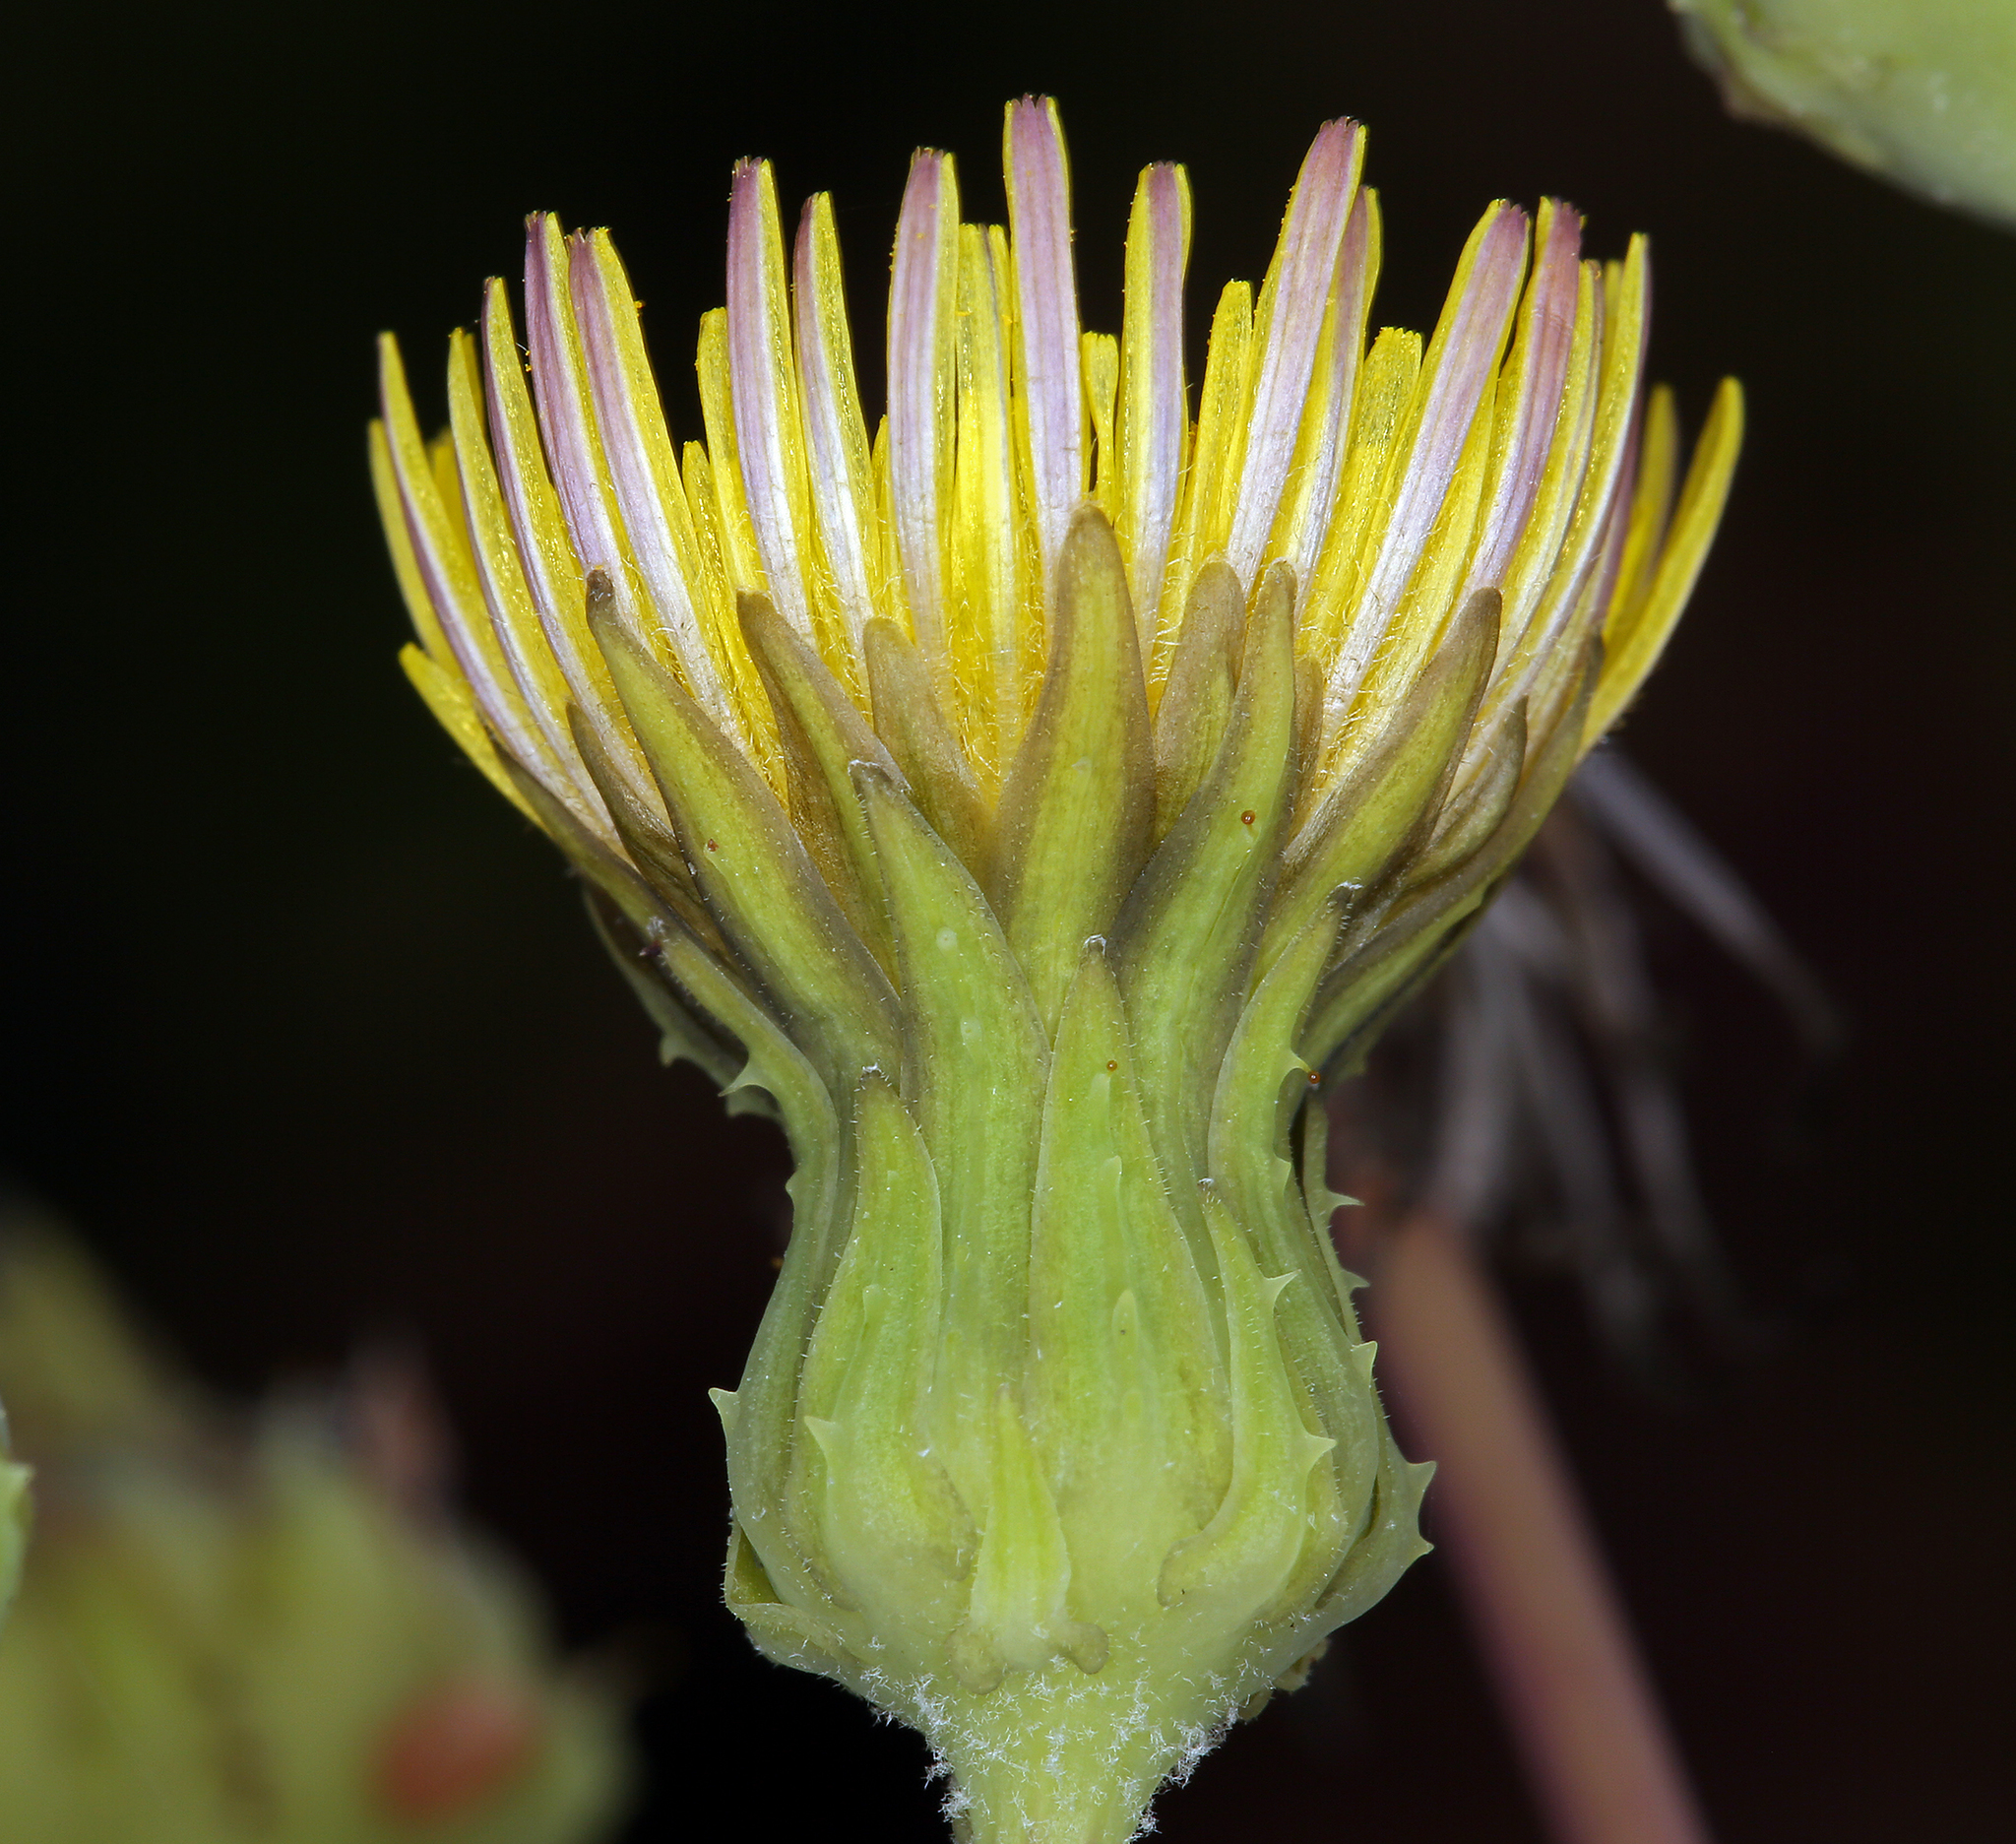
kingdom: Plantae
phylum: Tracheophyta
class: Magnoliopsida
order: Asterales
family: Asteraceae
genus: Sonchus
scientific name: Sonchus asper
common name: Prickly sow-thistle
